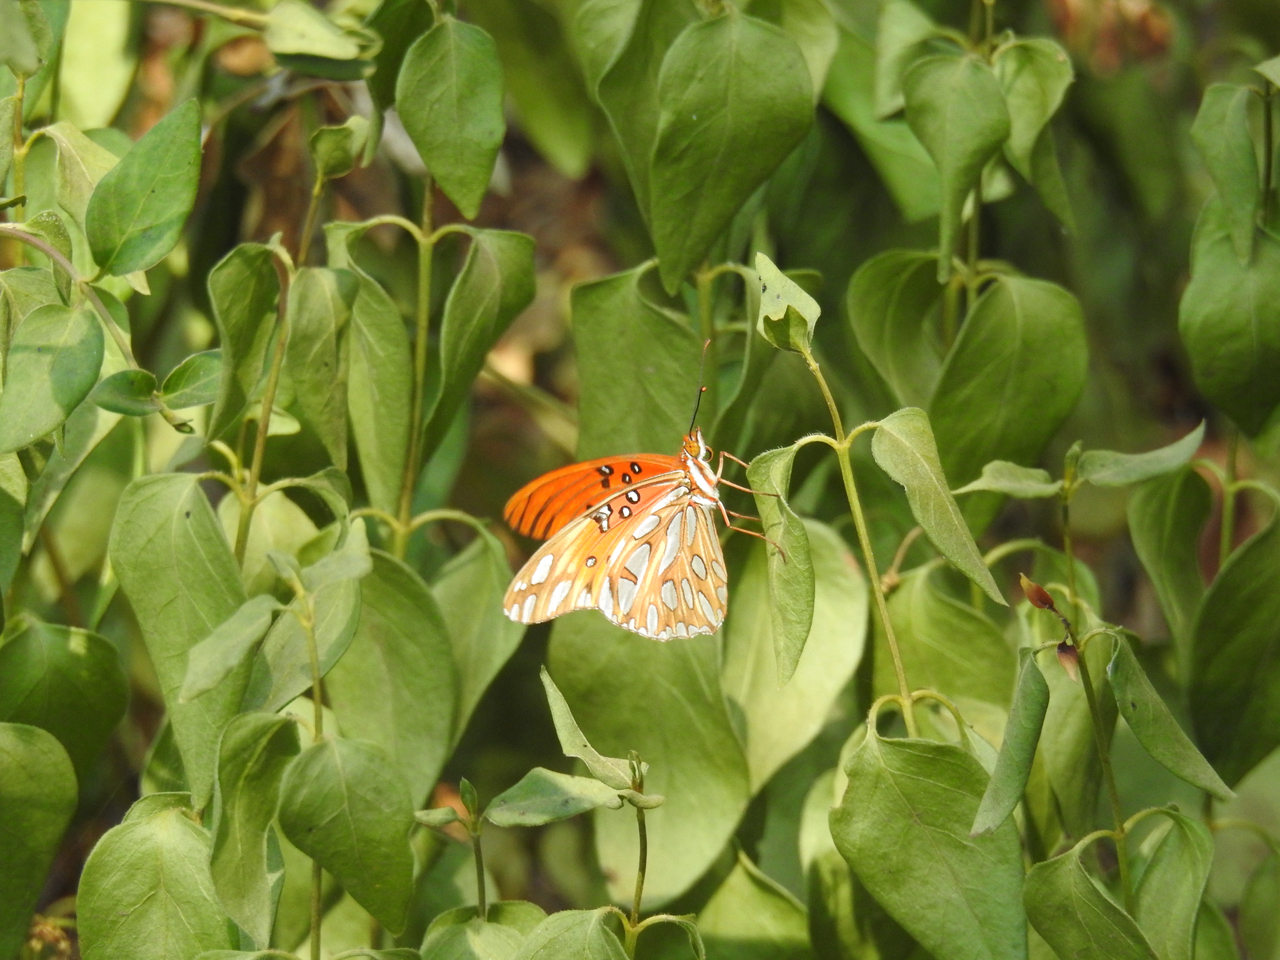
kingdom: Animalia
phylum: Arthropoda
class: Insecta
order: Lepidoptera
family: Nymphalidae
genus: Dione
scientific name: Dione vanillae
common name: Gulf fritillary
